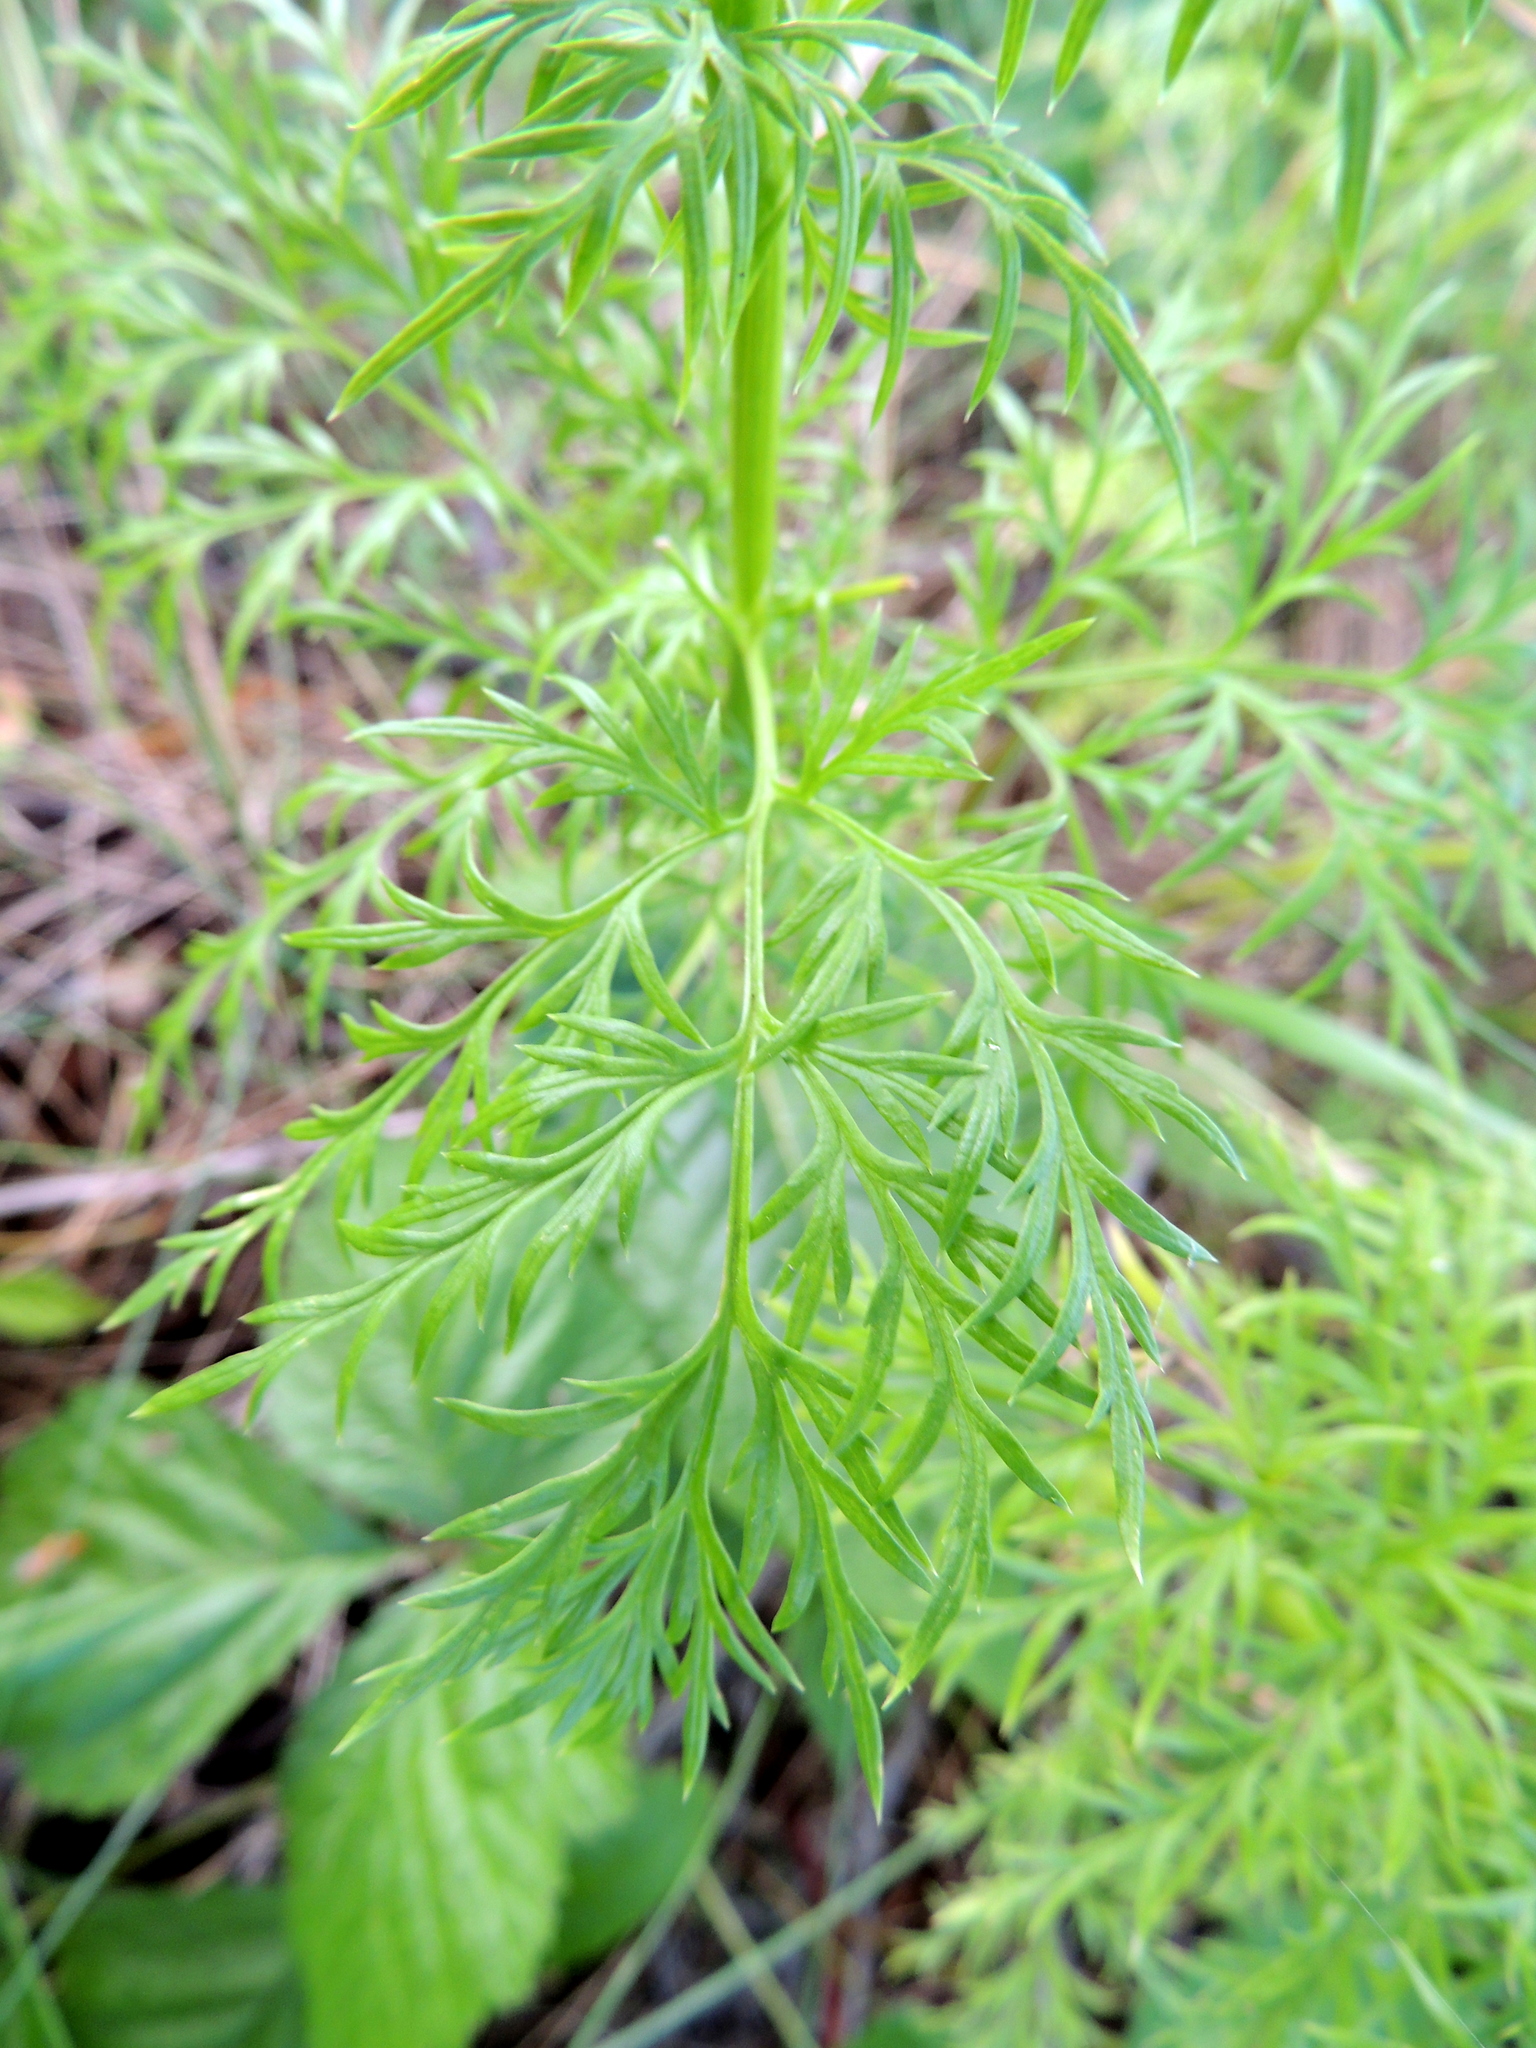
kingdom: Plantae
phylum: Tracheophyta
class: Magnoliopsida
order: Ranunculales
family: Ranunculaceae
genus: Adonis
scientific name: Adonis
